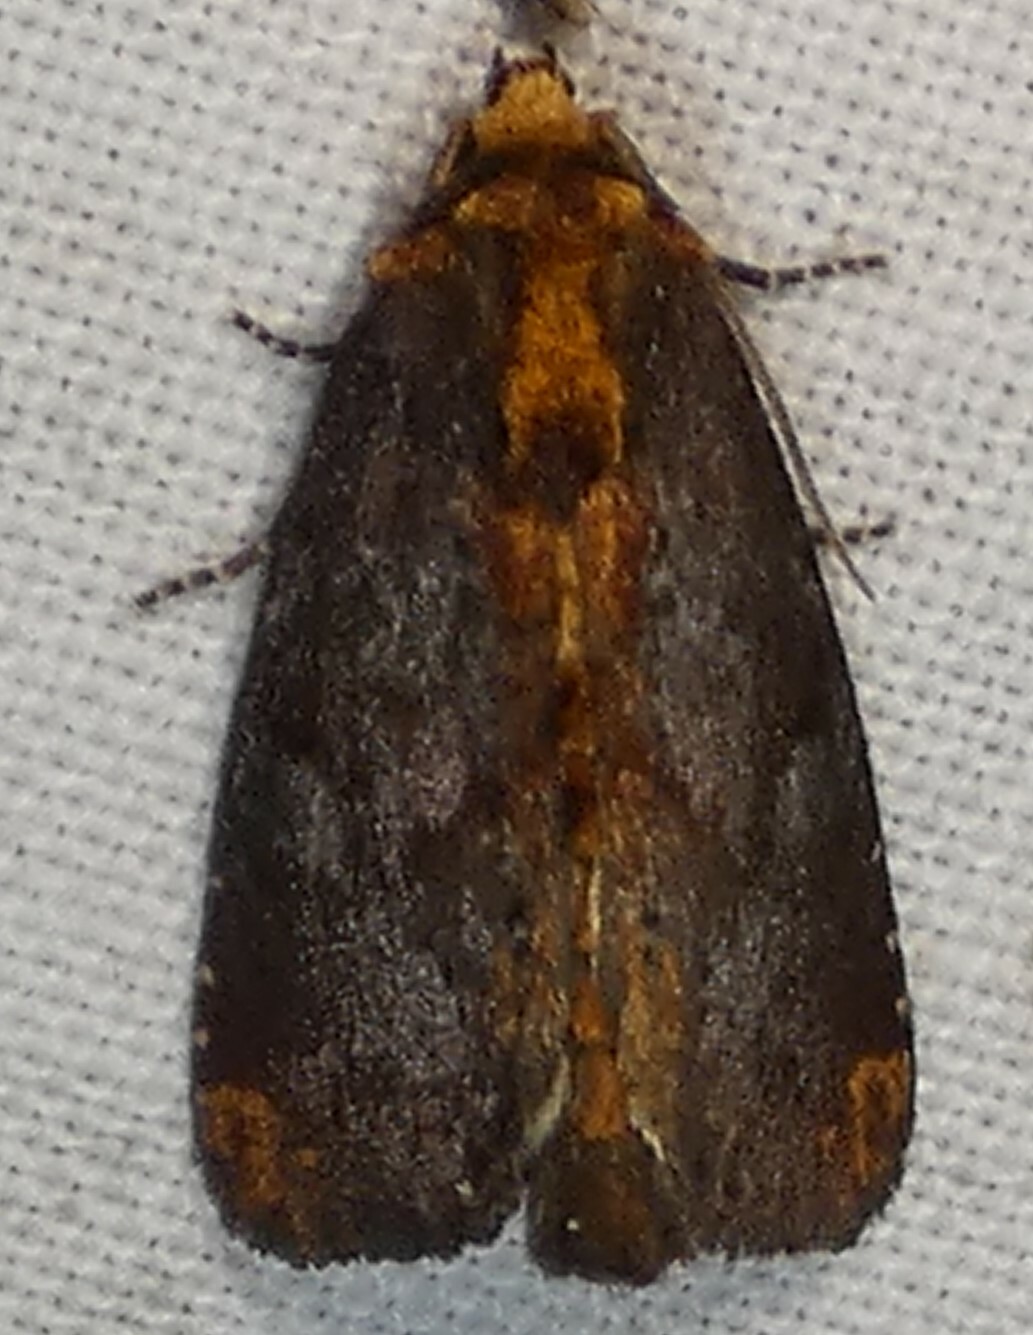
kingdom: Animalia
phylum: Arthropoda
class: Insecta
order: Lepidoptera
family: Noctuidae
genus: Achatodes
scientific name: Achatodes zeae
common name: Elder shoot borer
